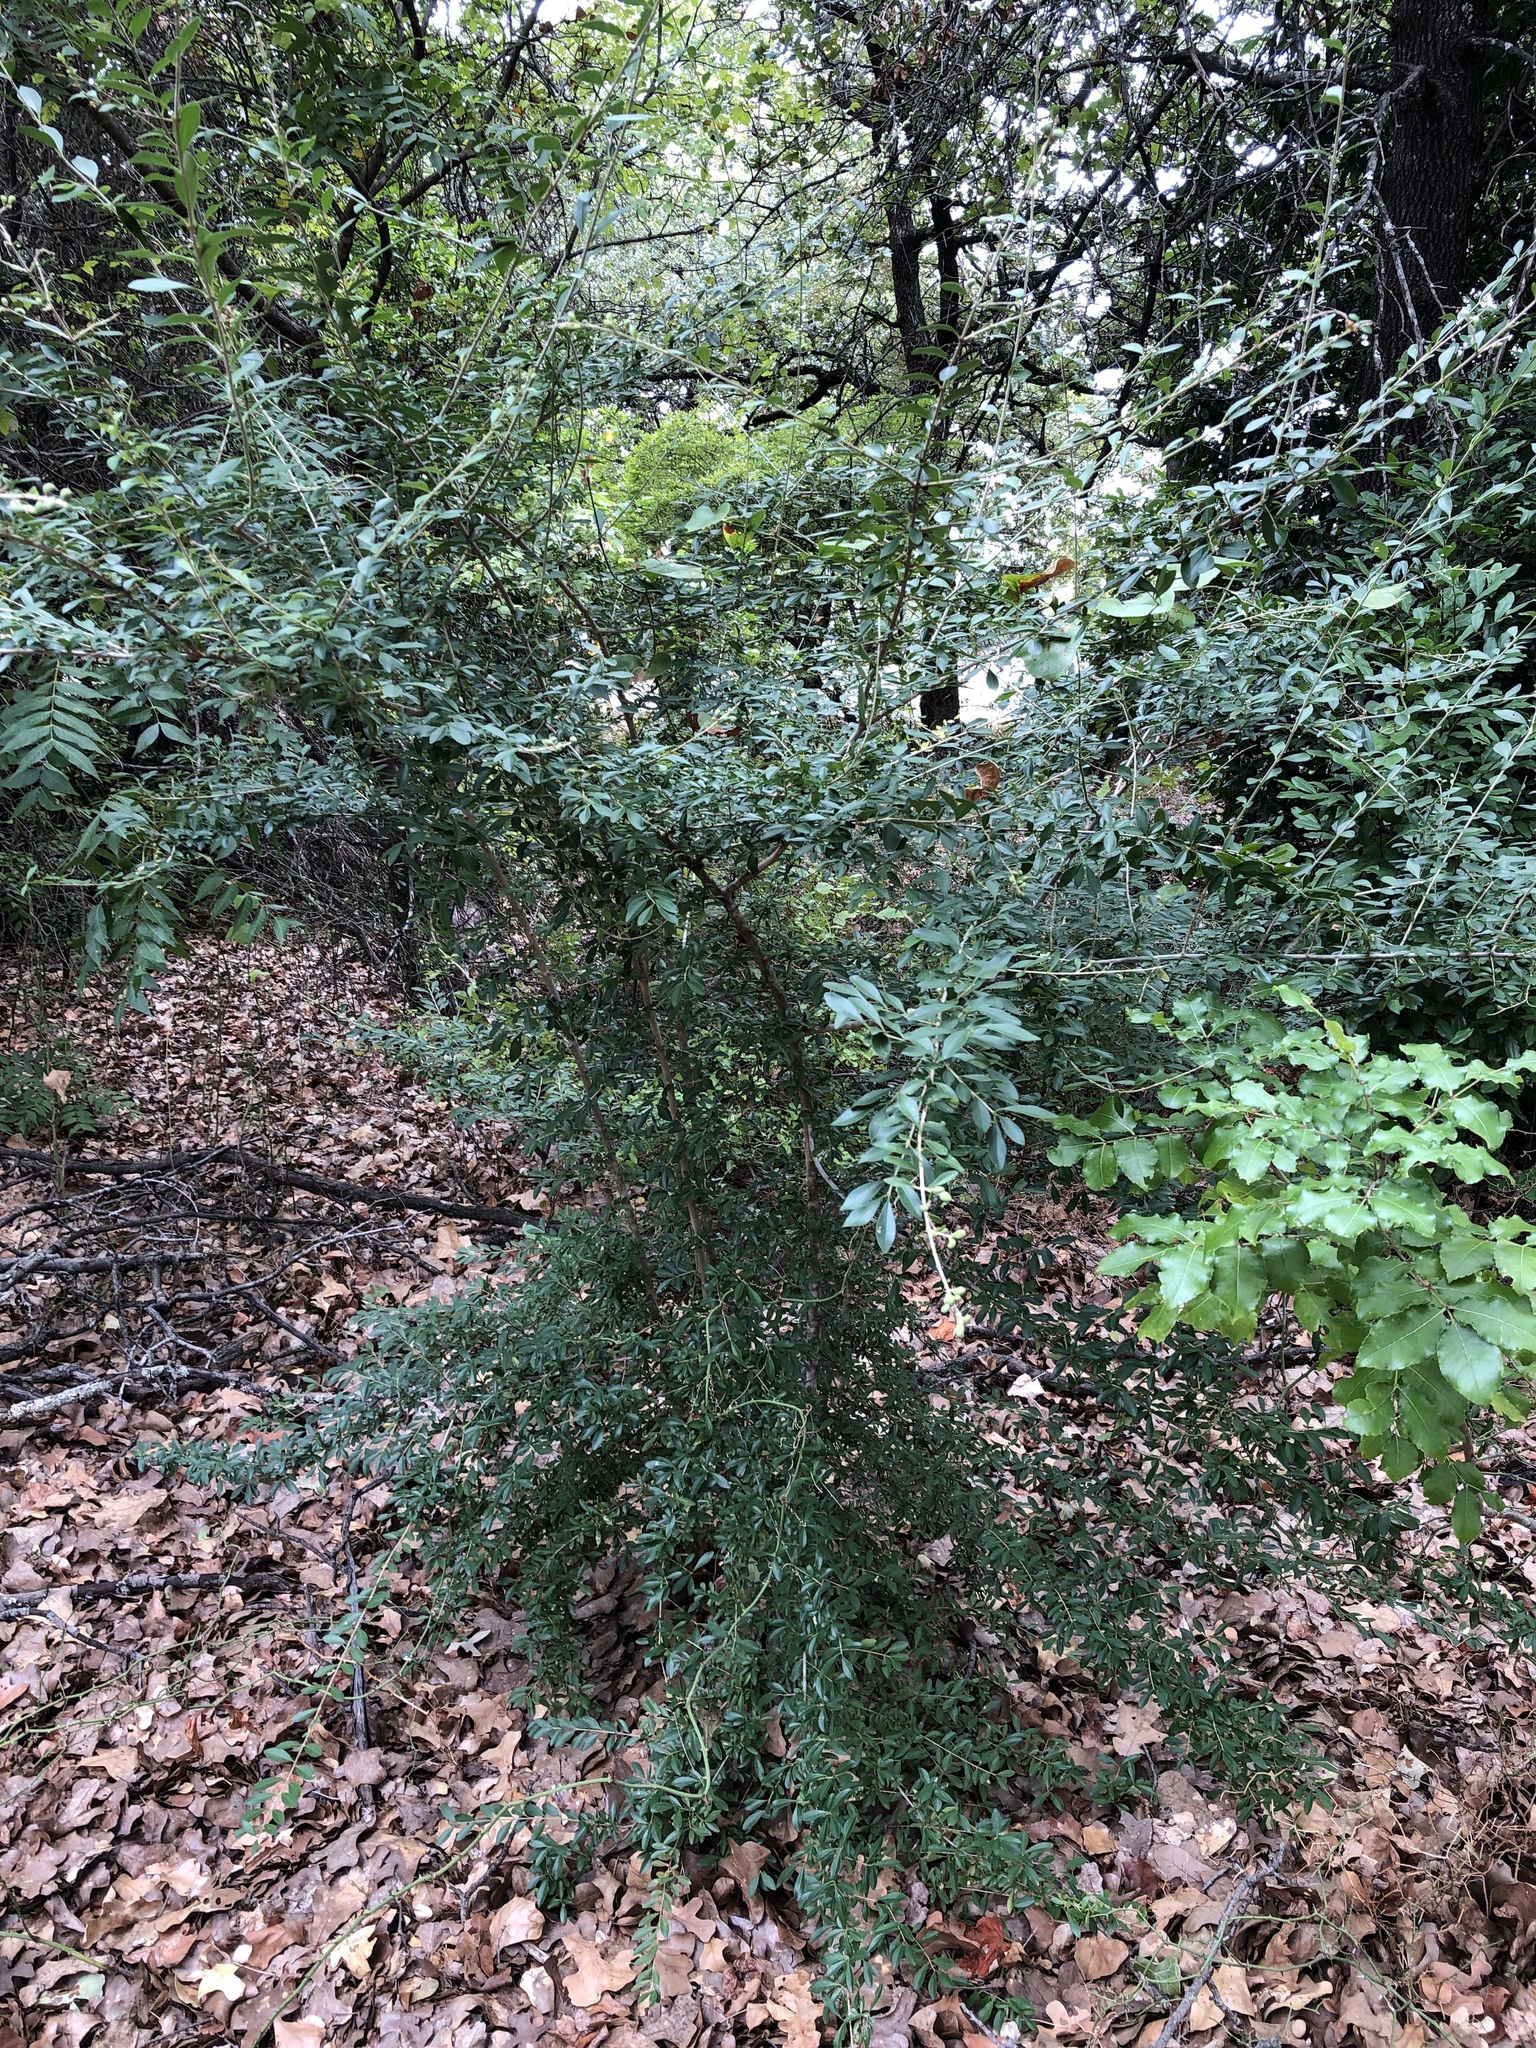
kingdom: Plantae
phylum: Tracheophyta
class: Magnoliopsida
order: Lamiales
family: Oleaceae
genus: Ligustrum
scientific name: Ligustrum quihoui
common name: Waxyleaf privet
